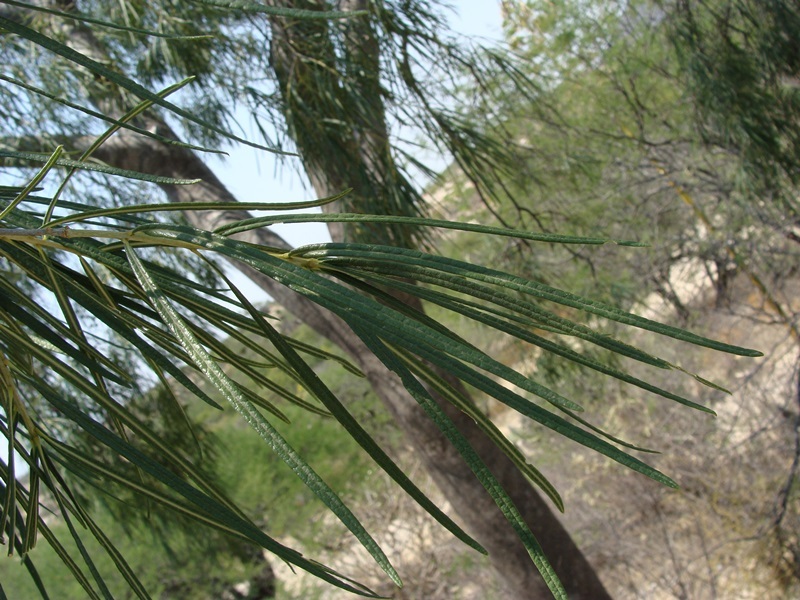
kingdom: Plantae
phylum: Tracheophyta
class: Magnoliopsida
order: Brassicales
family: Stixaceae
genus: Forchhammeria
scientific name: Forchhammeria macrocarpa
